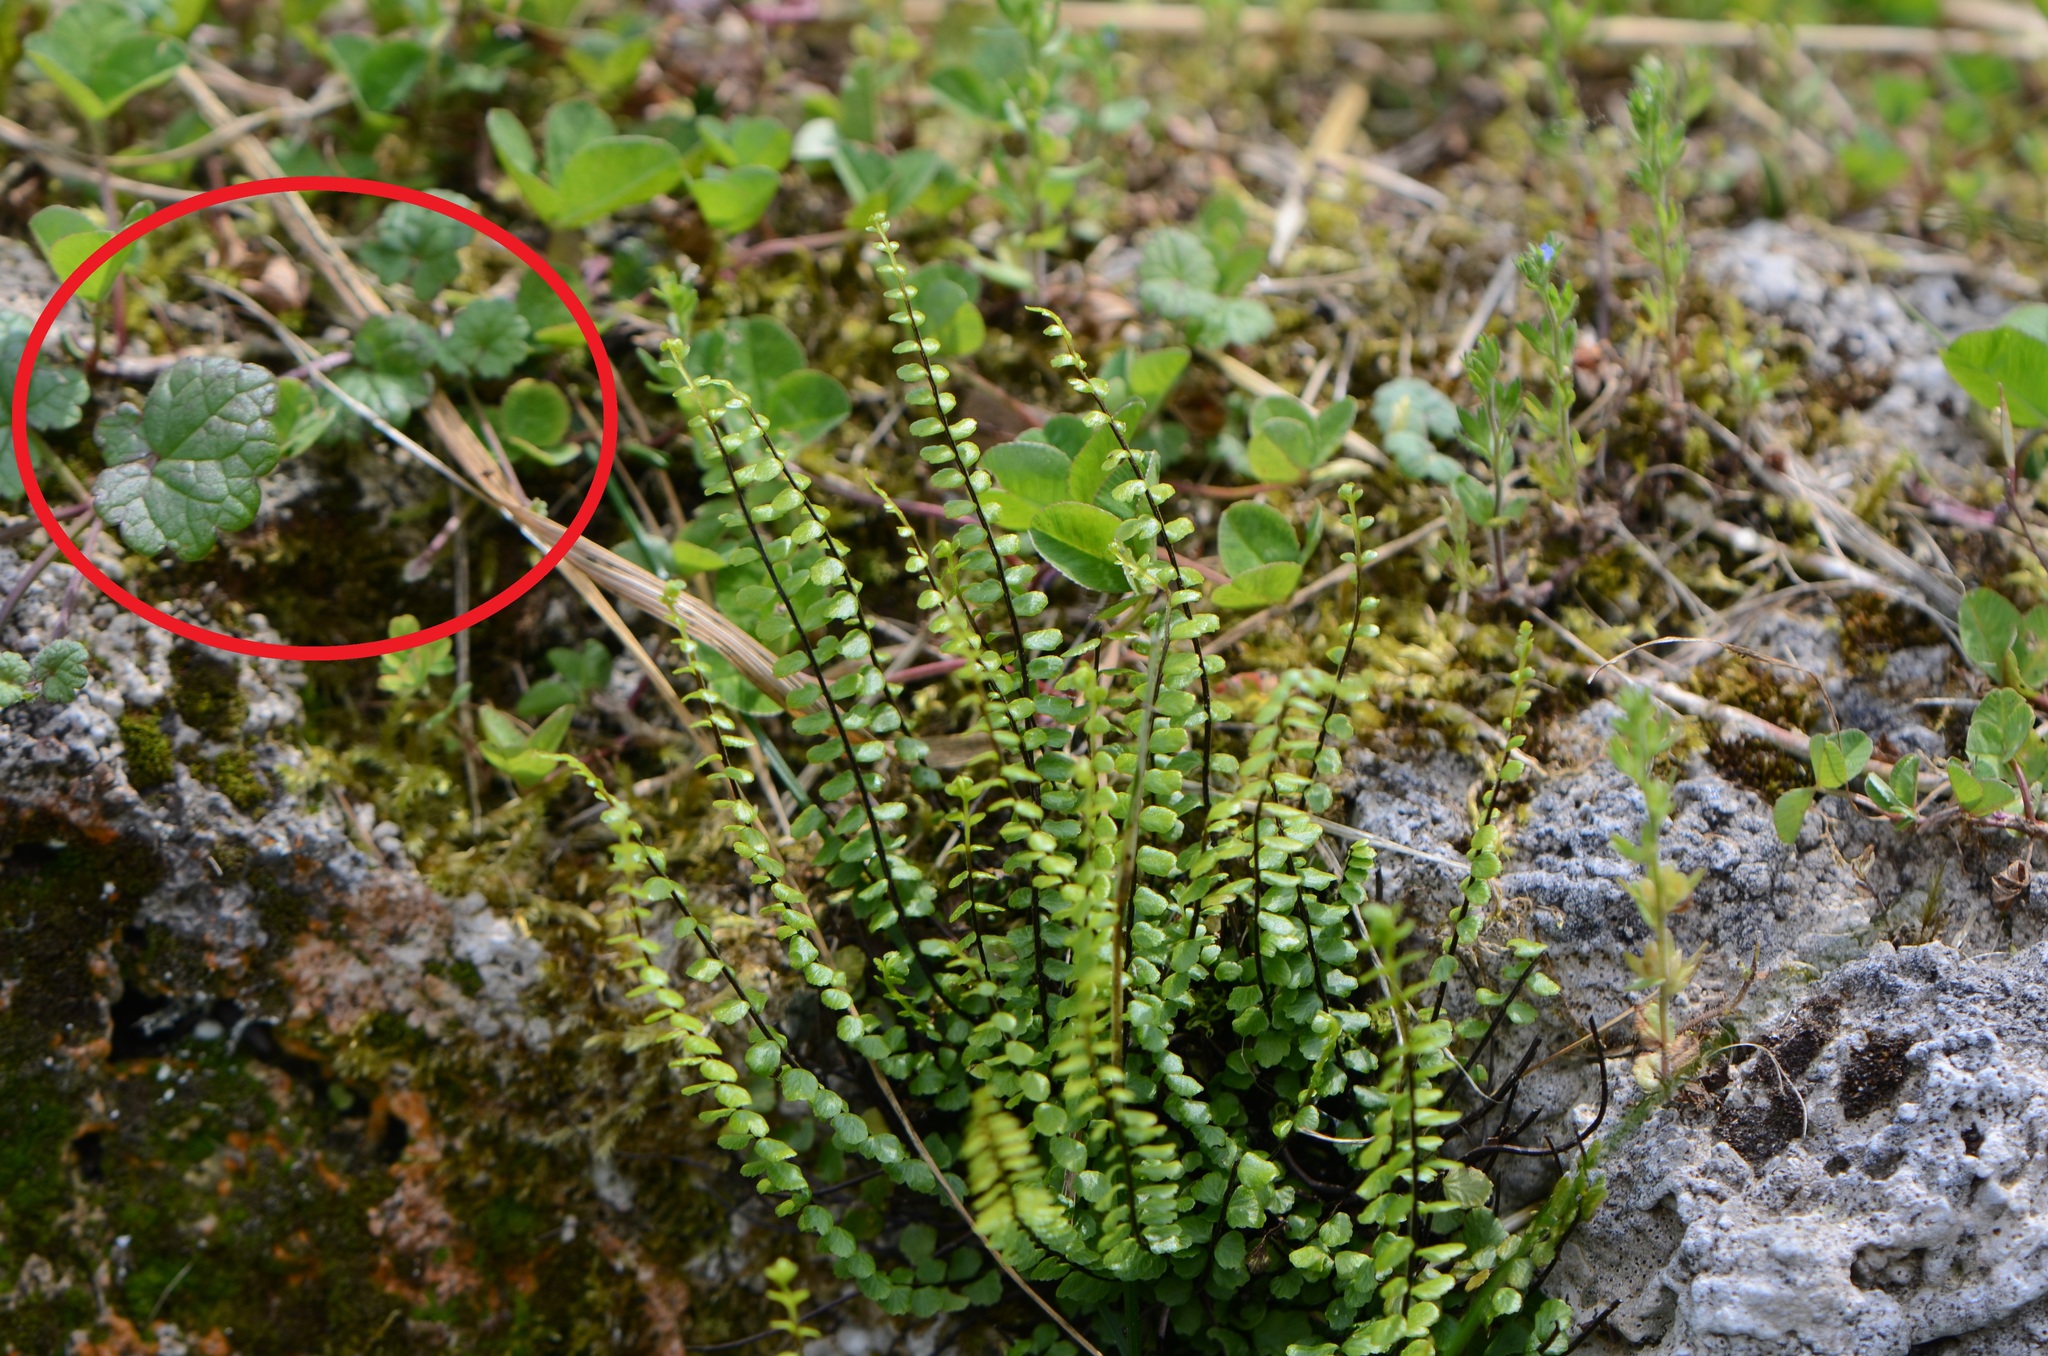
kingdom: Plantae
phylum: Tracheophyta
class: Magnoliopsida
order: Lamiales
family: Lamiaceae
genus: Glechoma
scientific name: Glechoma hederacea
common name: Ground ivy
